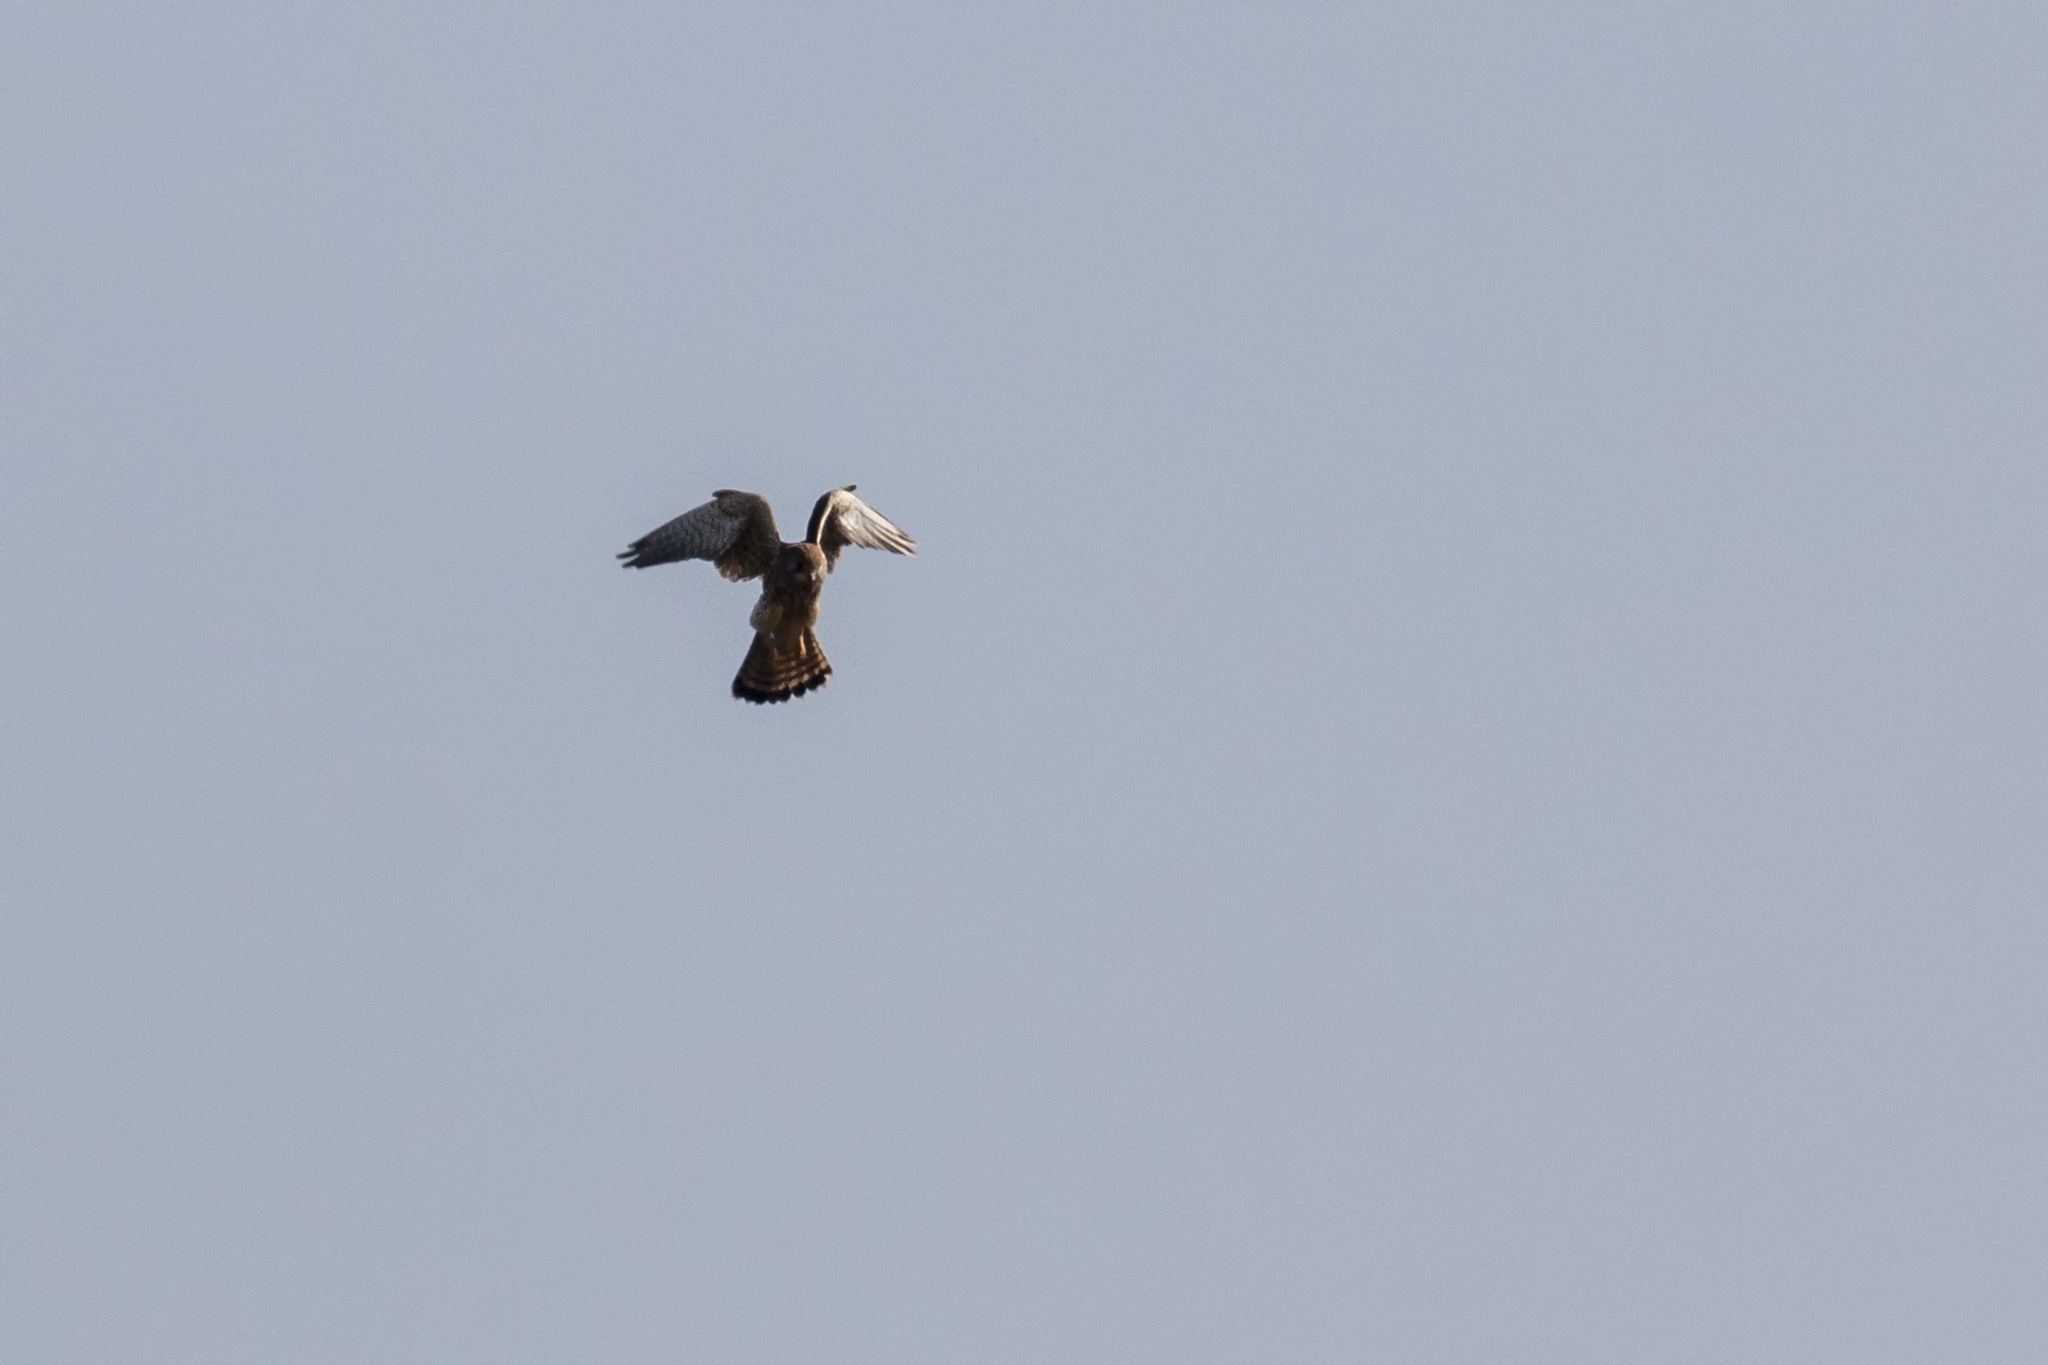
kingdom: Animalia
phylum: Chordata
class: Aves
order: Falconiformes
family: Falconidae
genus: Falco
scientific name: Falco tinnunculus
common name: Common kestrel
